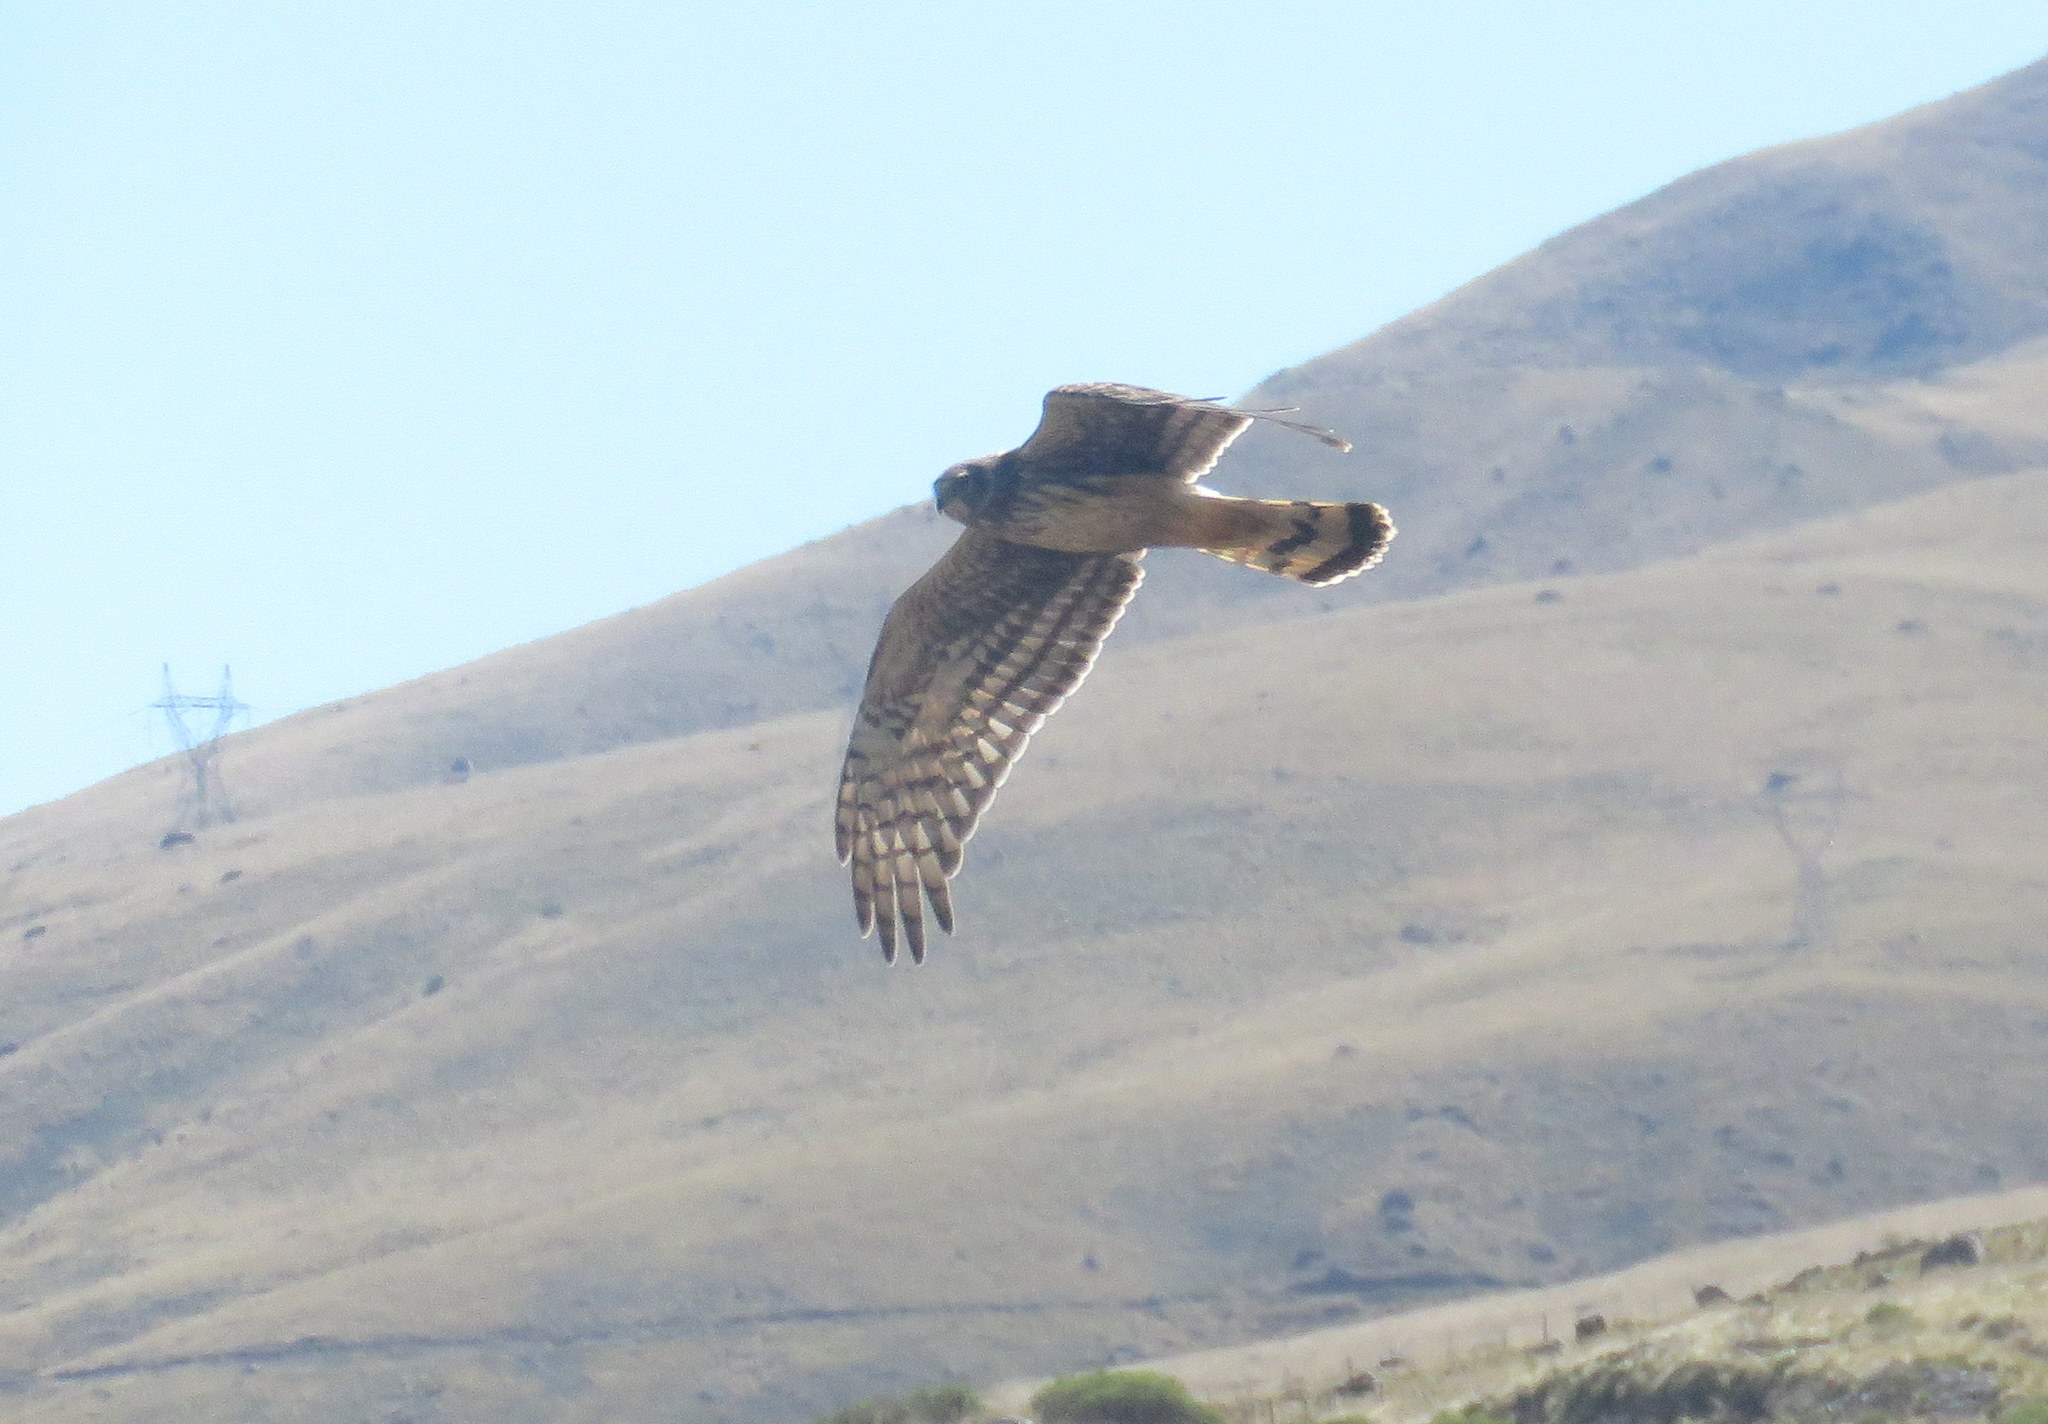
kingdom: Animalia
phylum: Chordata
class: Aves
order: Accipitriformes
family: Accipitridae
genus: Circus
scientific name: Circus cinereus
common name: Cinereous harrier
